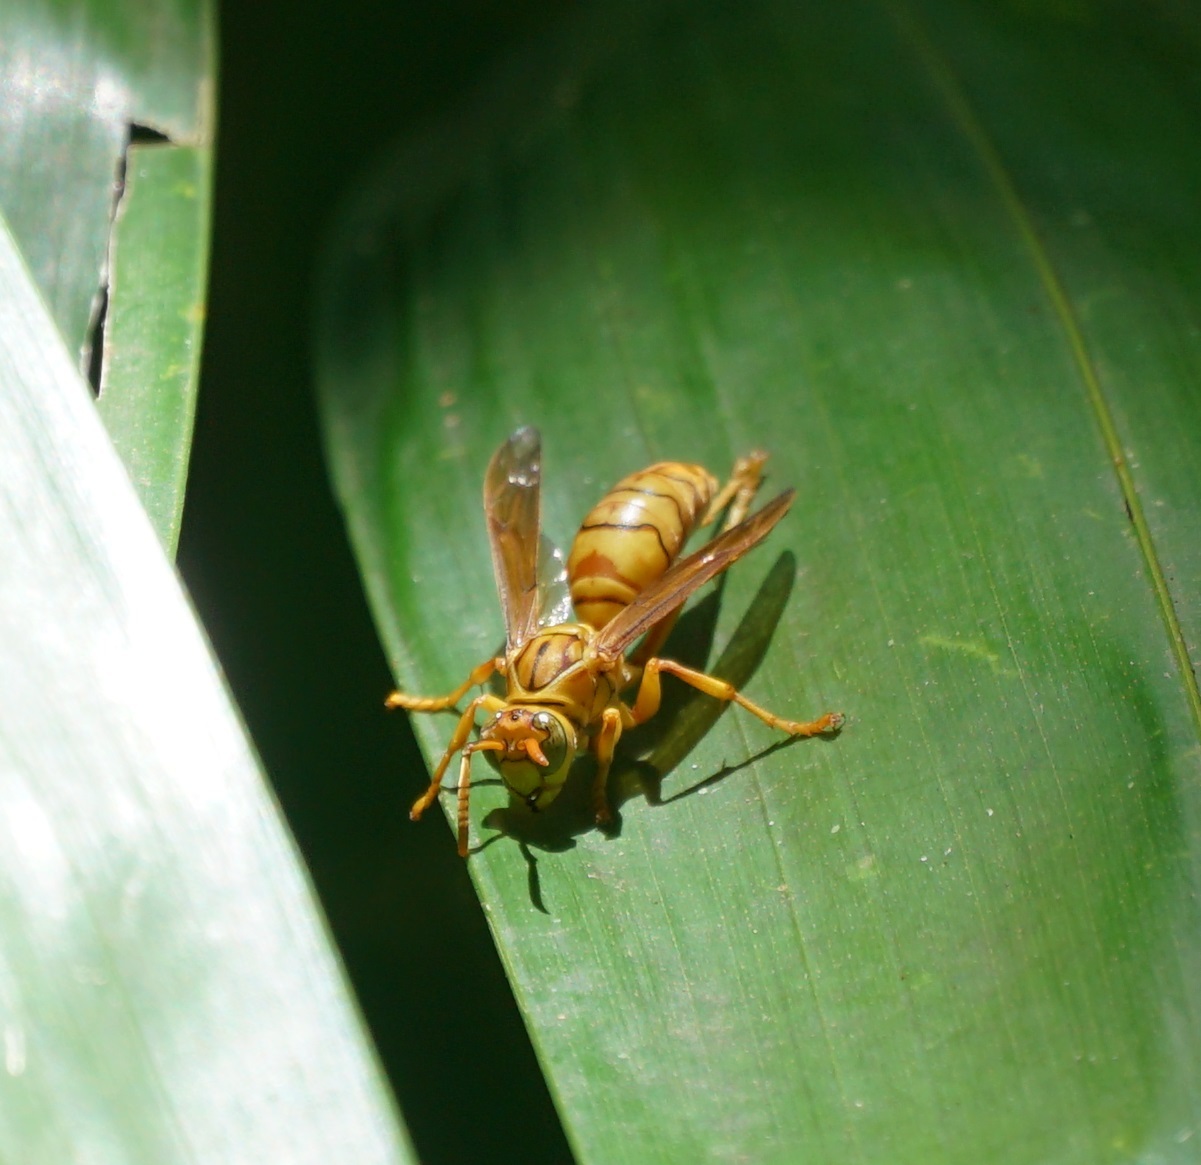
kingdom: Animalia
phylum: Arthropoda
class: Insecta
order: Hymenoptera
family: Eumenidae
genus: Polistes
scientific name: Polistes olivaceus
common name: Paper wasp
